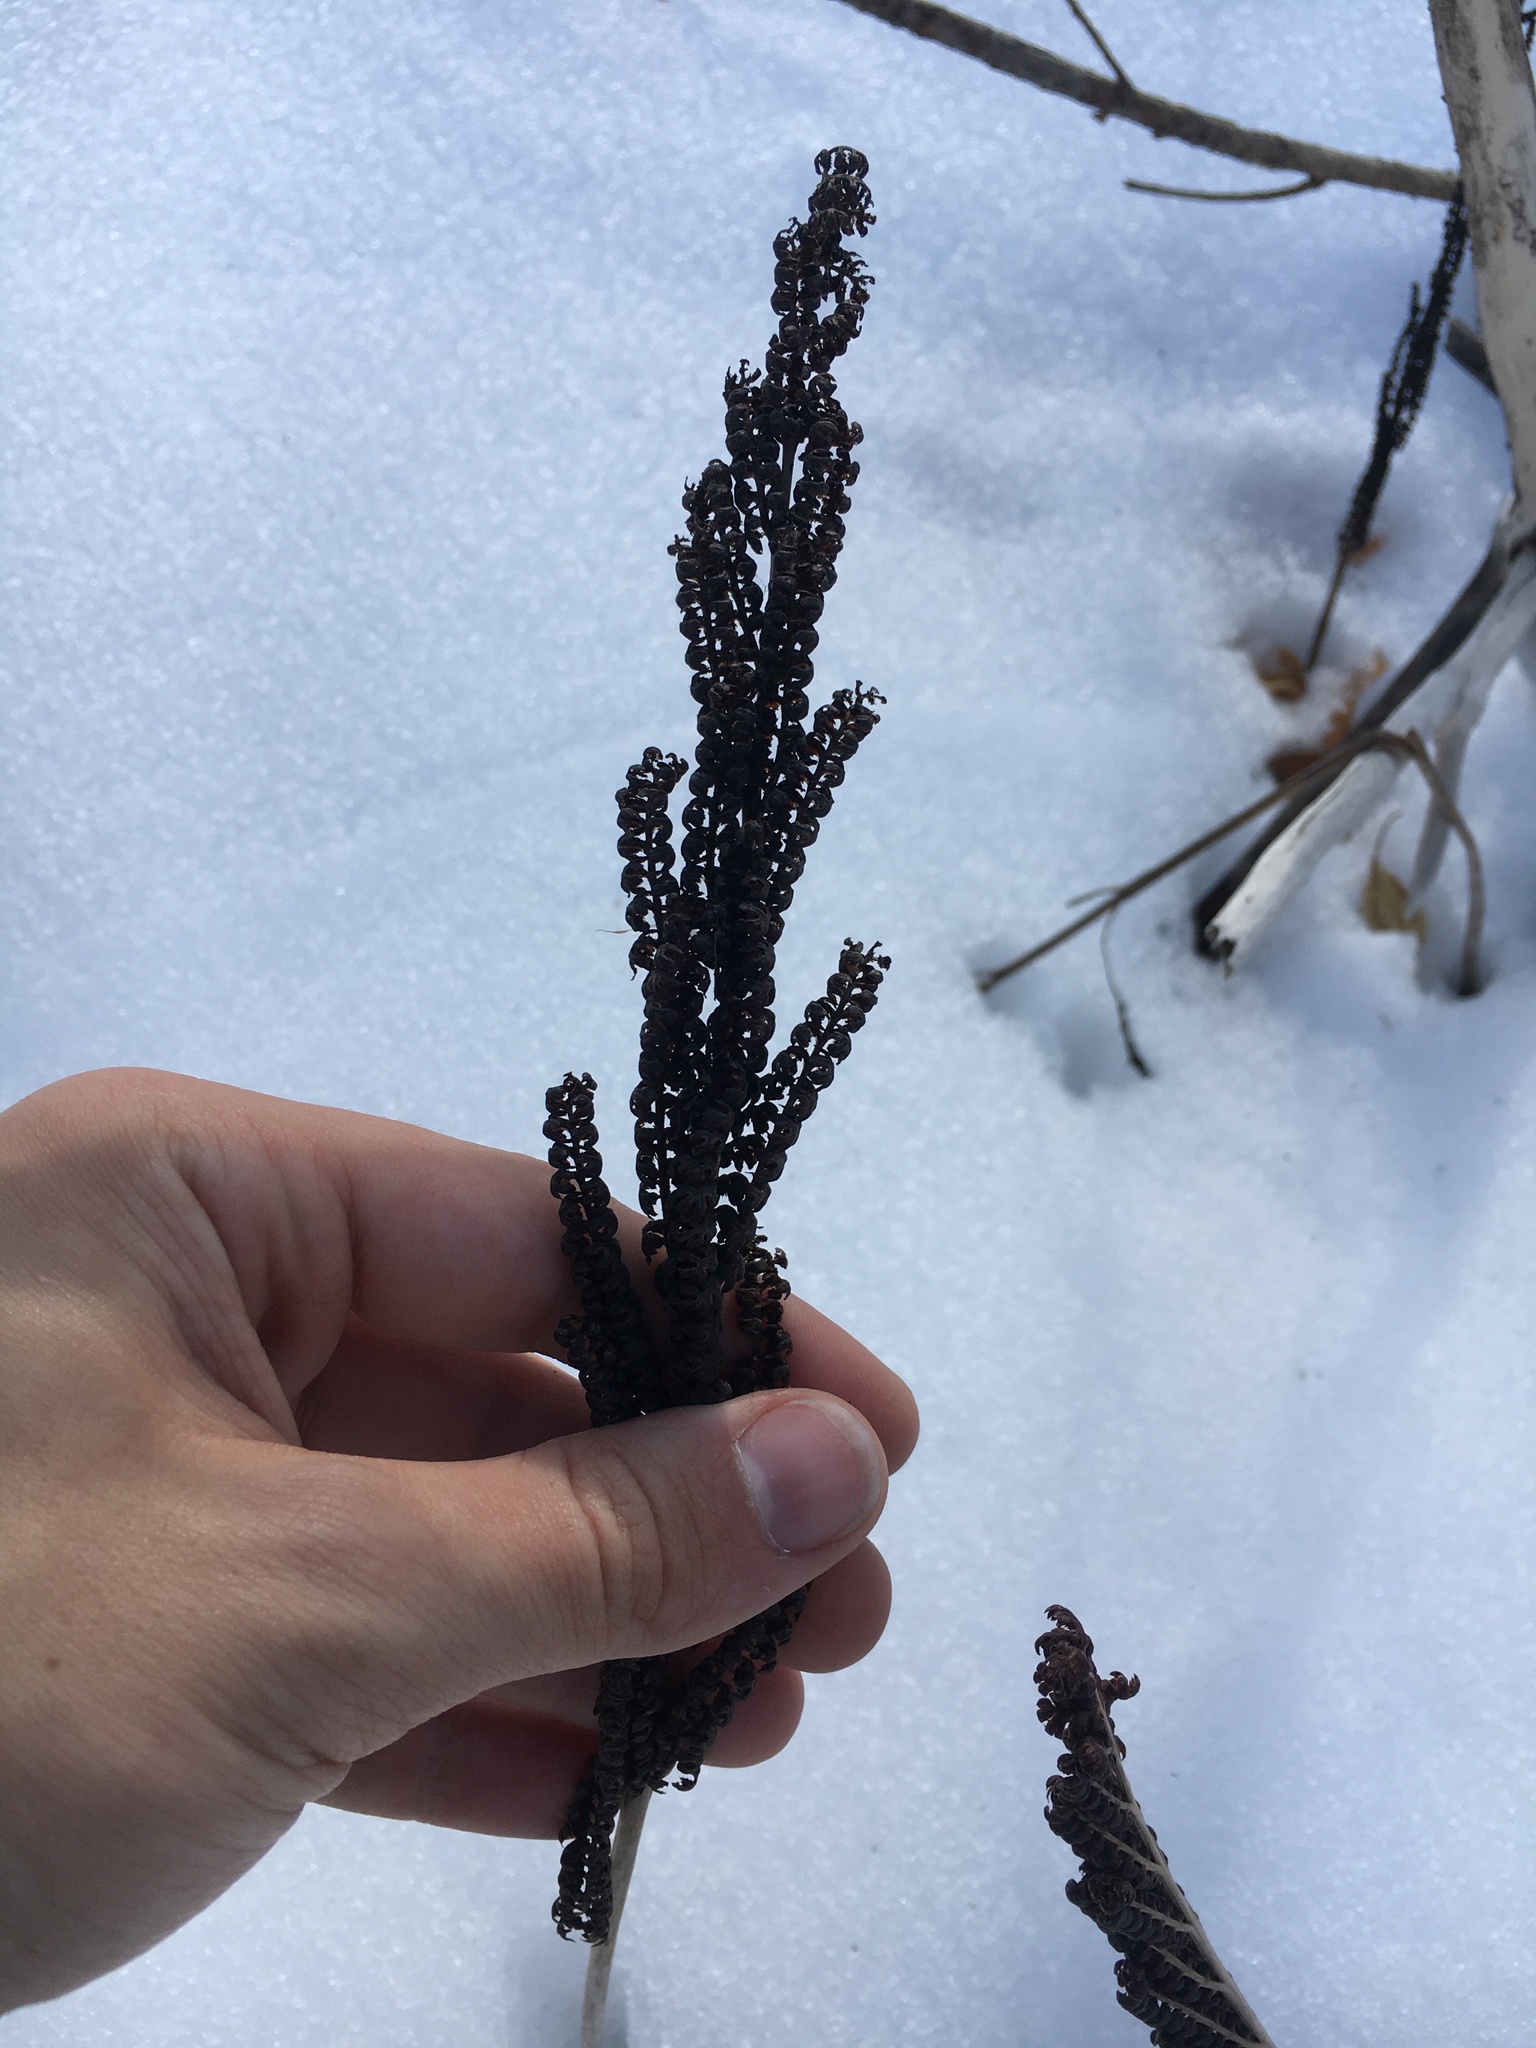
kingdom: Plantae
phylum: Tracheophyta
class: Polypodiopsida
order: Polypodiales
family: Onocleaceae
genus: Onoclea
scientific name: Onoclea sensibilis
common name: Sensitive fern
